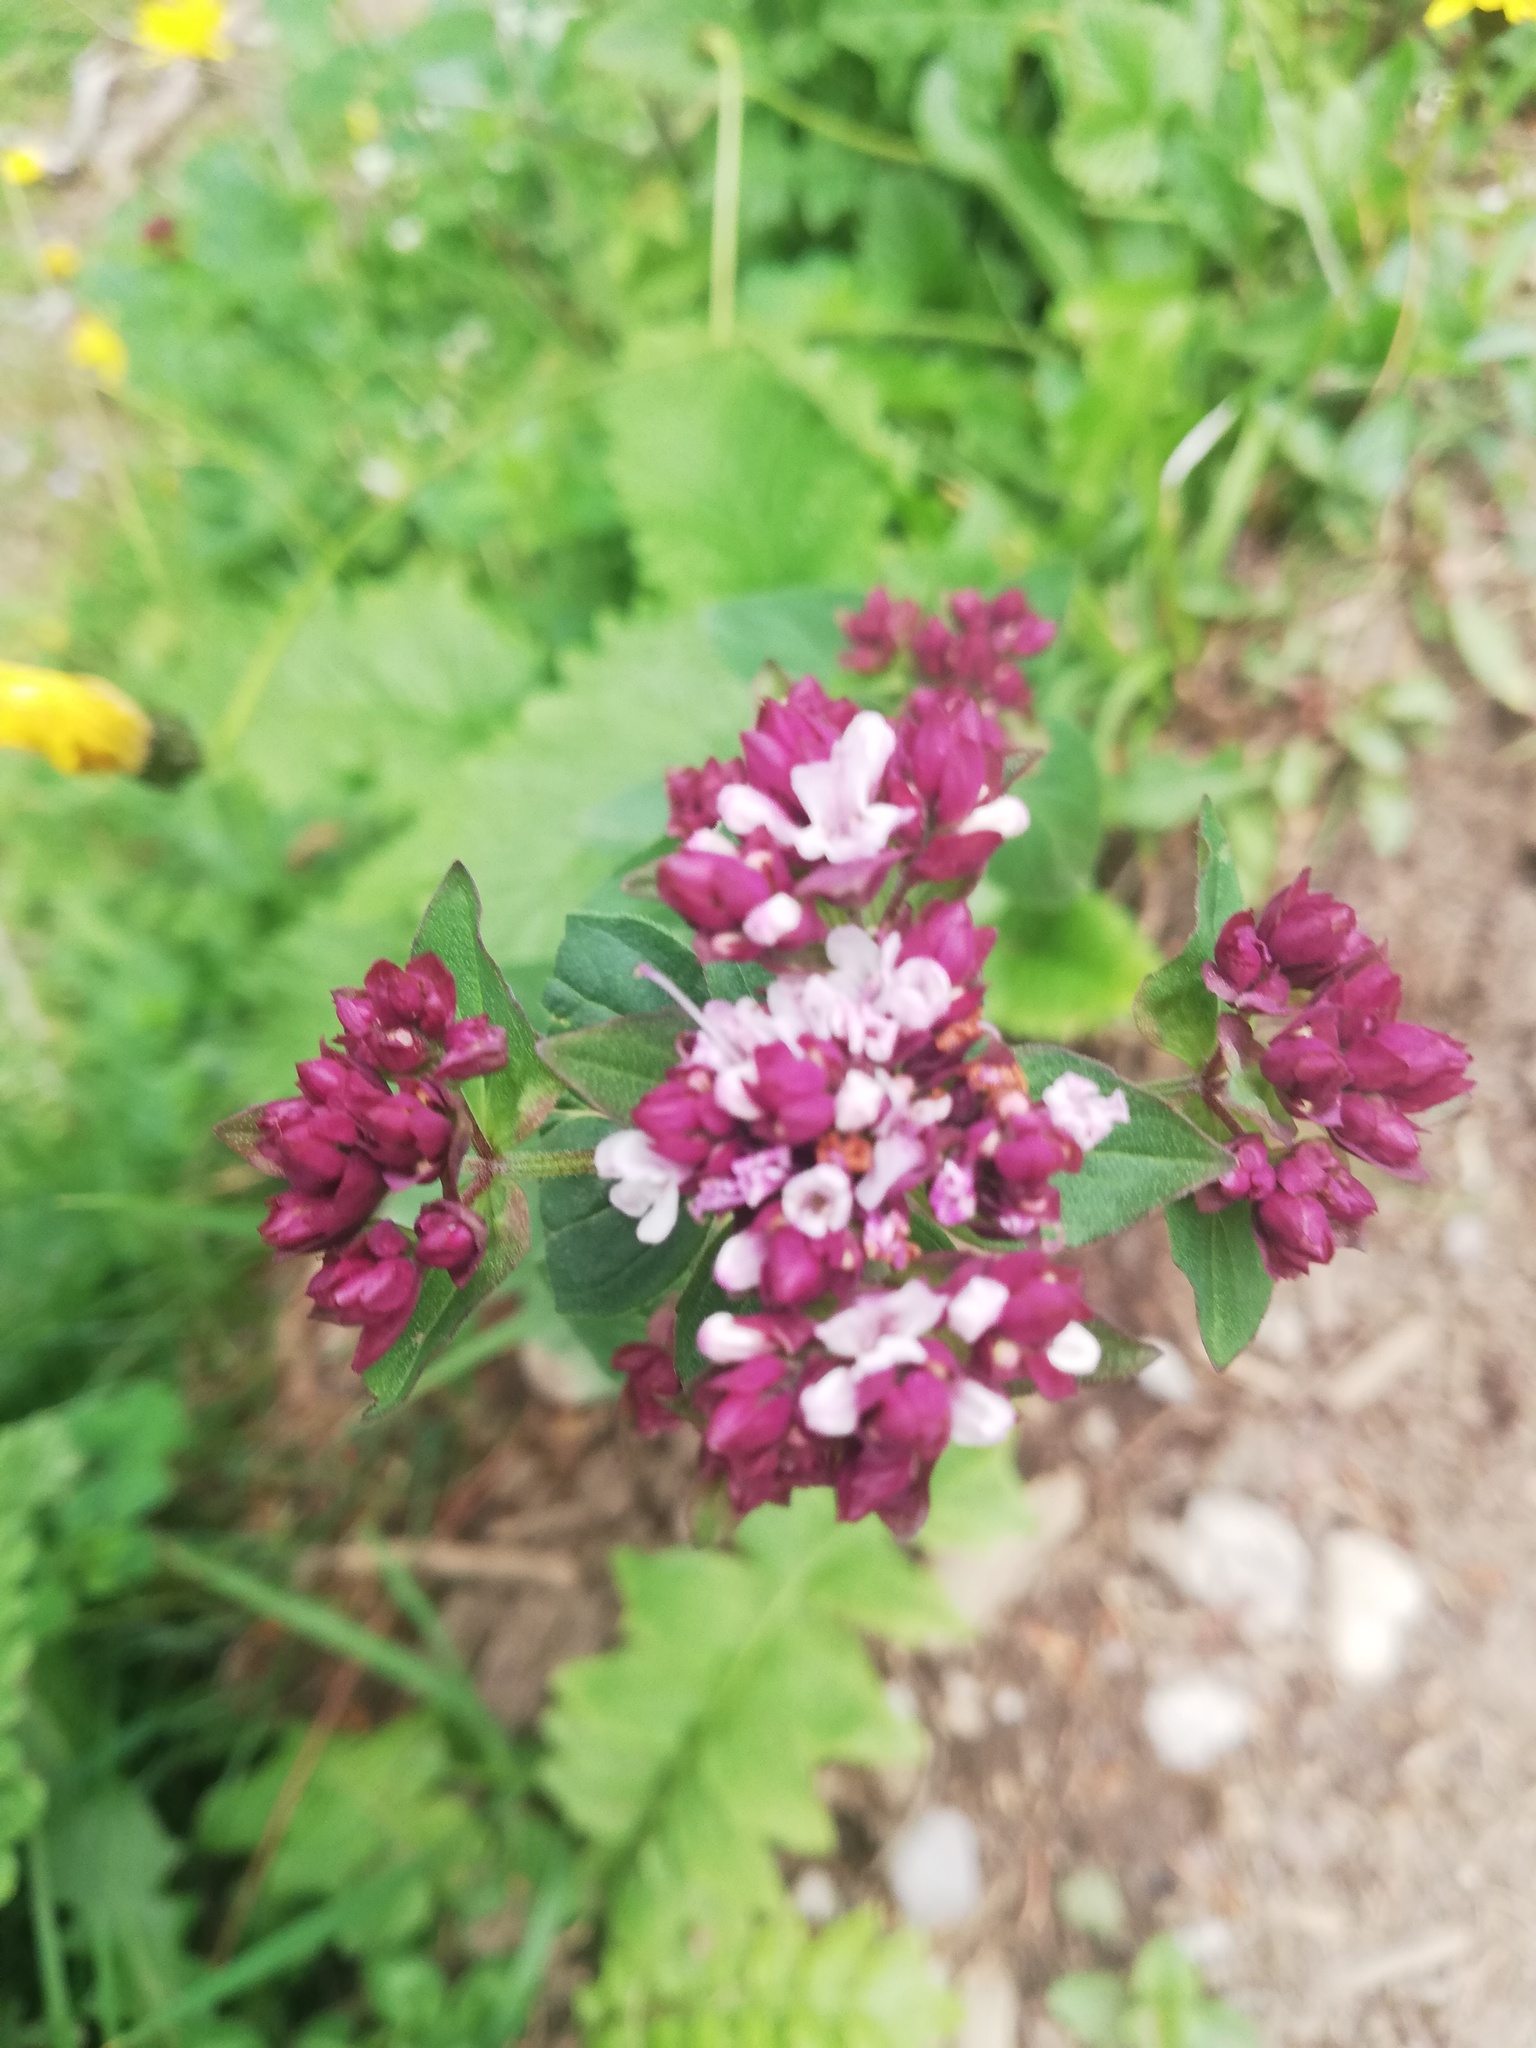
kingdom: Plantae
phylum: Tracheophyta
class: Magnoliopsida
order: Lamiales
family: Lamiaceae
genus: Origanum
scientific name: Origanum vulgare
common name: Wild marjoram
